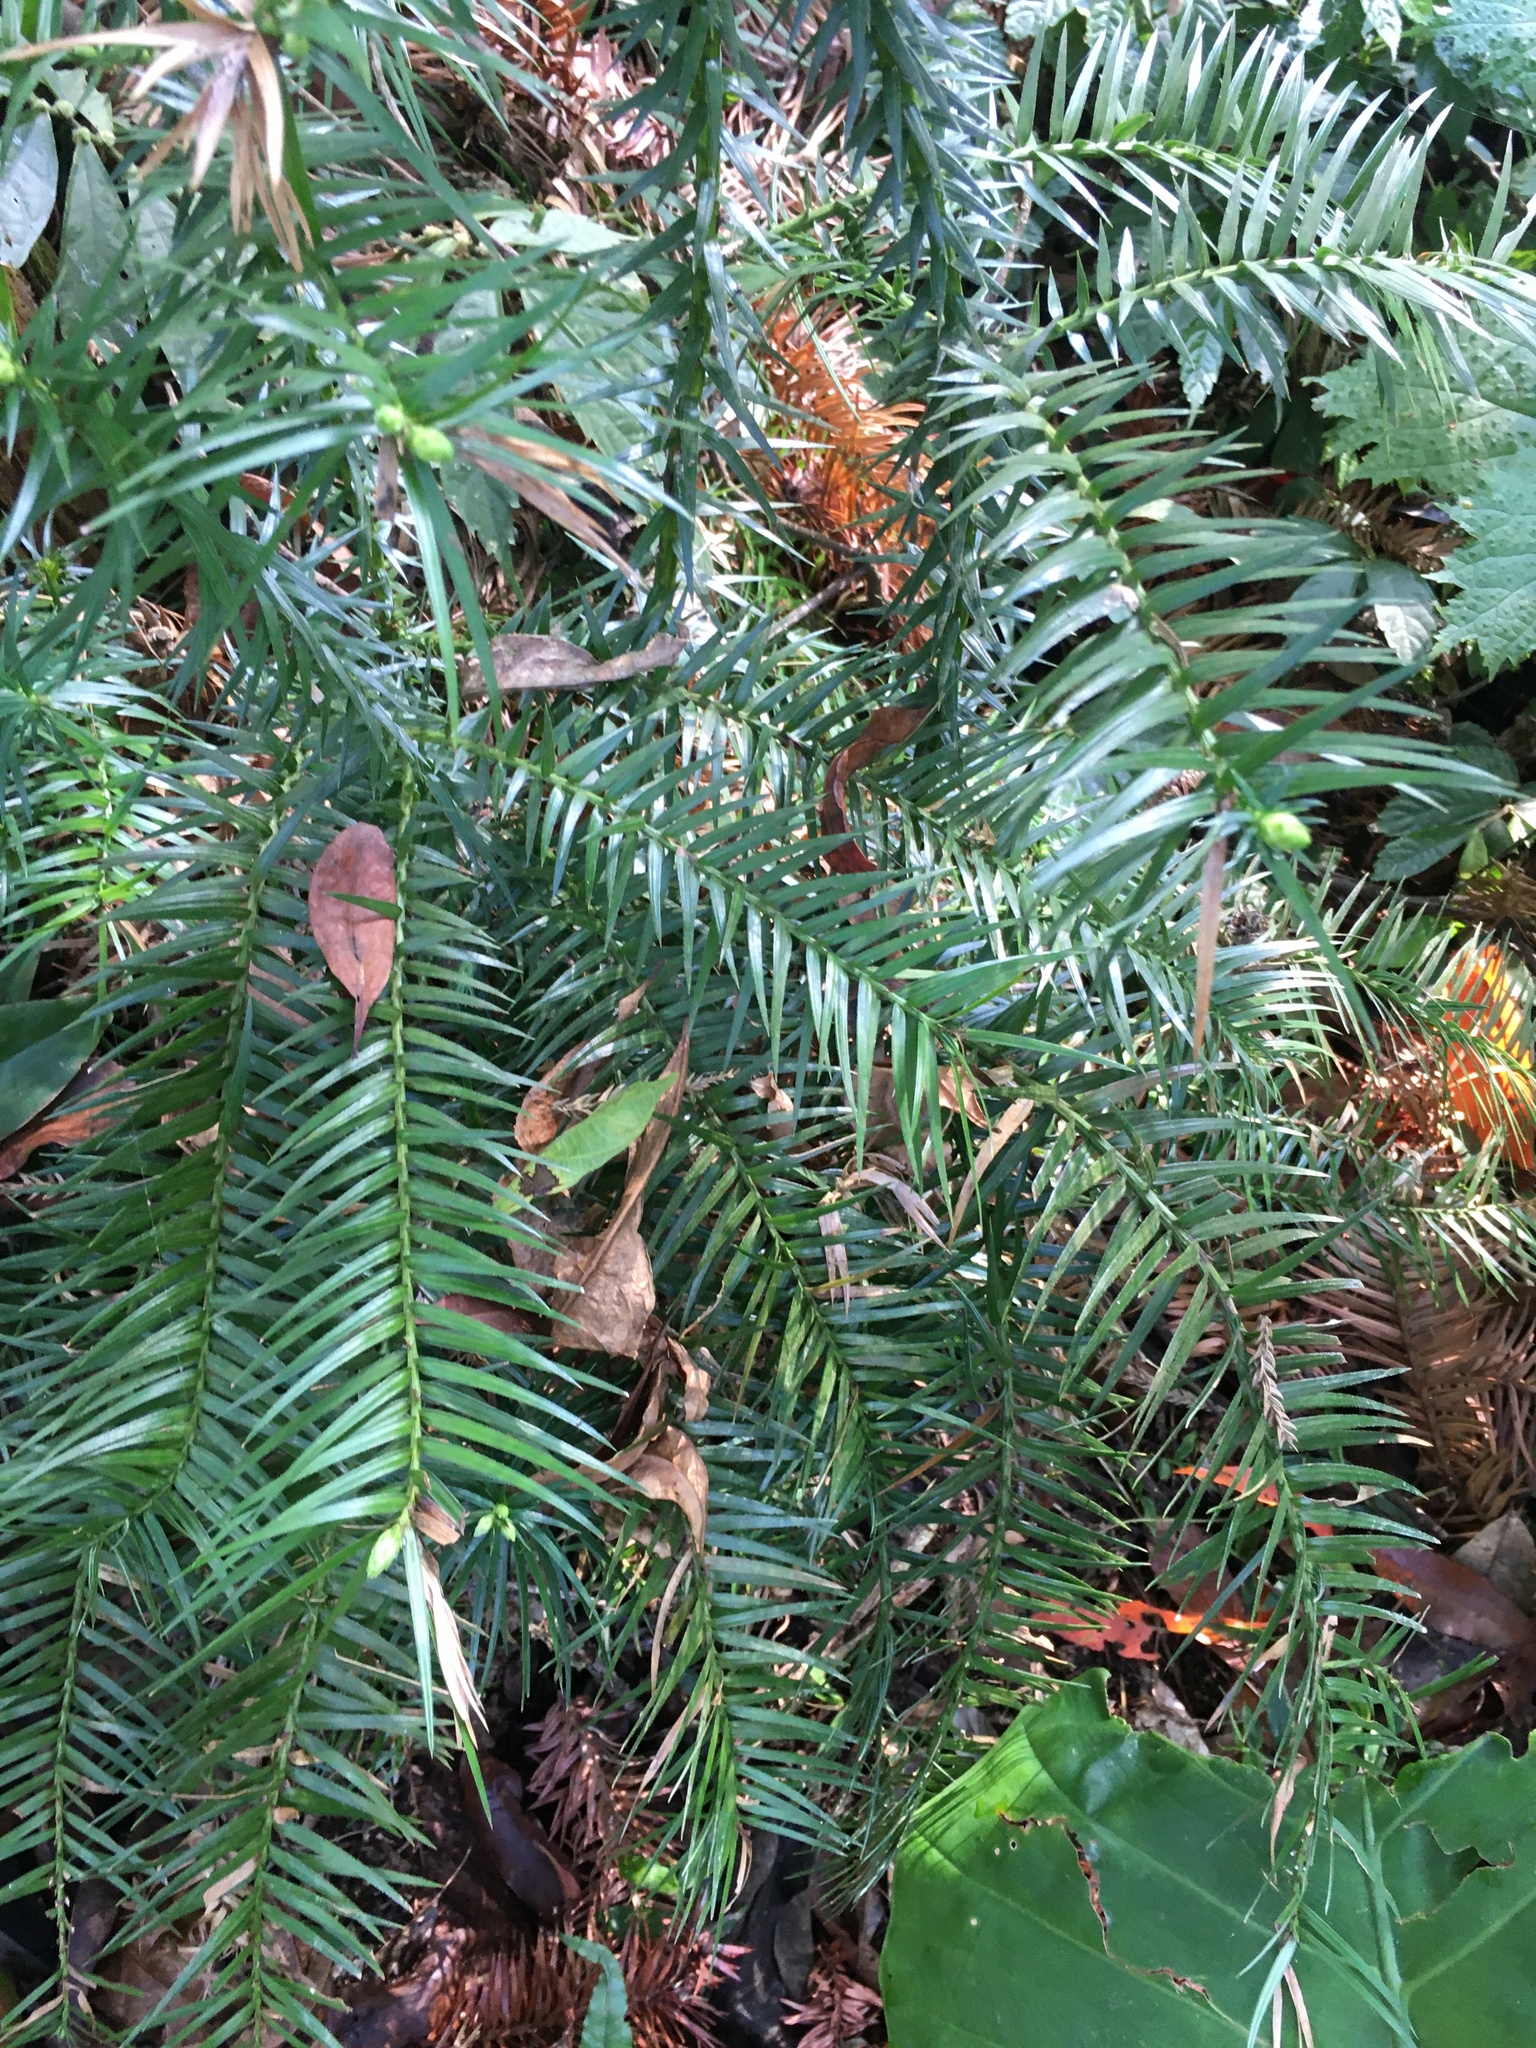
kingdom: Plantae
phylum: Tracheophyta
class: Pinopsida
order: Pinales
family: Cupressaceae
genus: Cunninghamia
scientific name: Cunninghamia lanceolata
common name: Chinese fir
